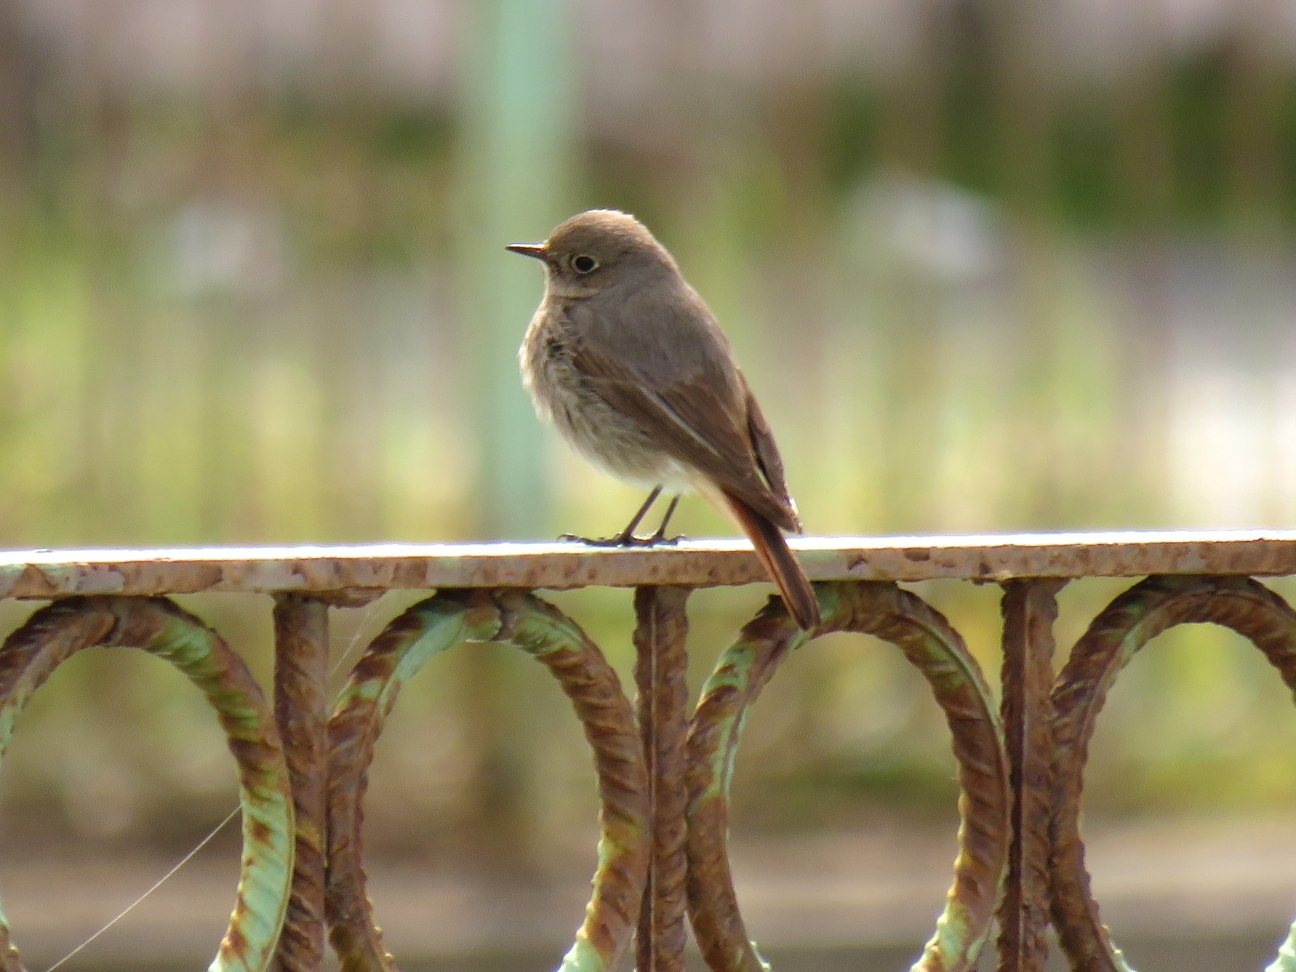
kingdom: Animalia
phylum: Chordata
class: Aves
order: Passeriformes
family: Muscicapidae
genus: Phoenicurus
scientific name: Phoenicurus ochruros
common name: Black redstart
